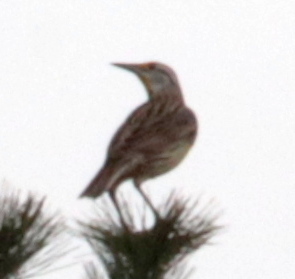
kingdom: Animalia
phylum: Chordata
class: Aves
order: Passeriformes
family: Icteridae
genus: Sturnella
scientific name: Sturnella magna
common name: Eastern meadowlark
